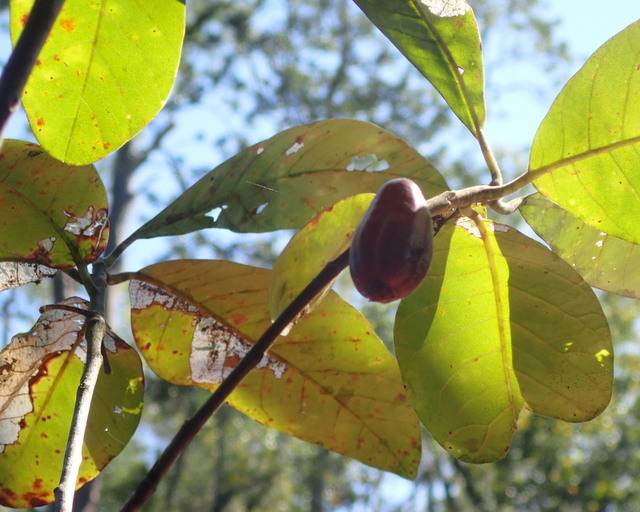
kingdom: Plantae
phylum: Tracheophyta
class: Magnoliopsida
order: Cornales
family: Nyssaceae
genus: Nyssa
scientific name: Nyssa ogeche
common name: Ogeechee tupelo
